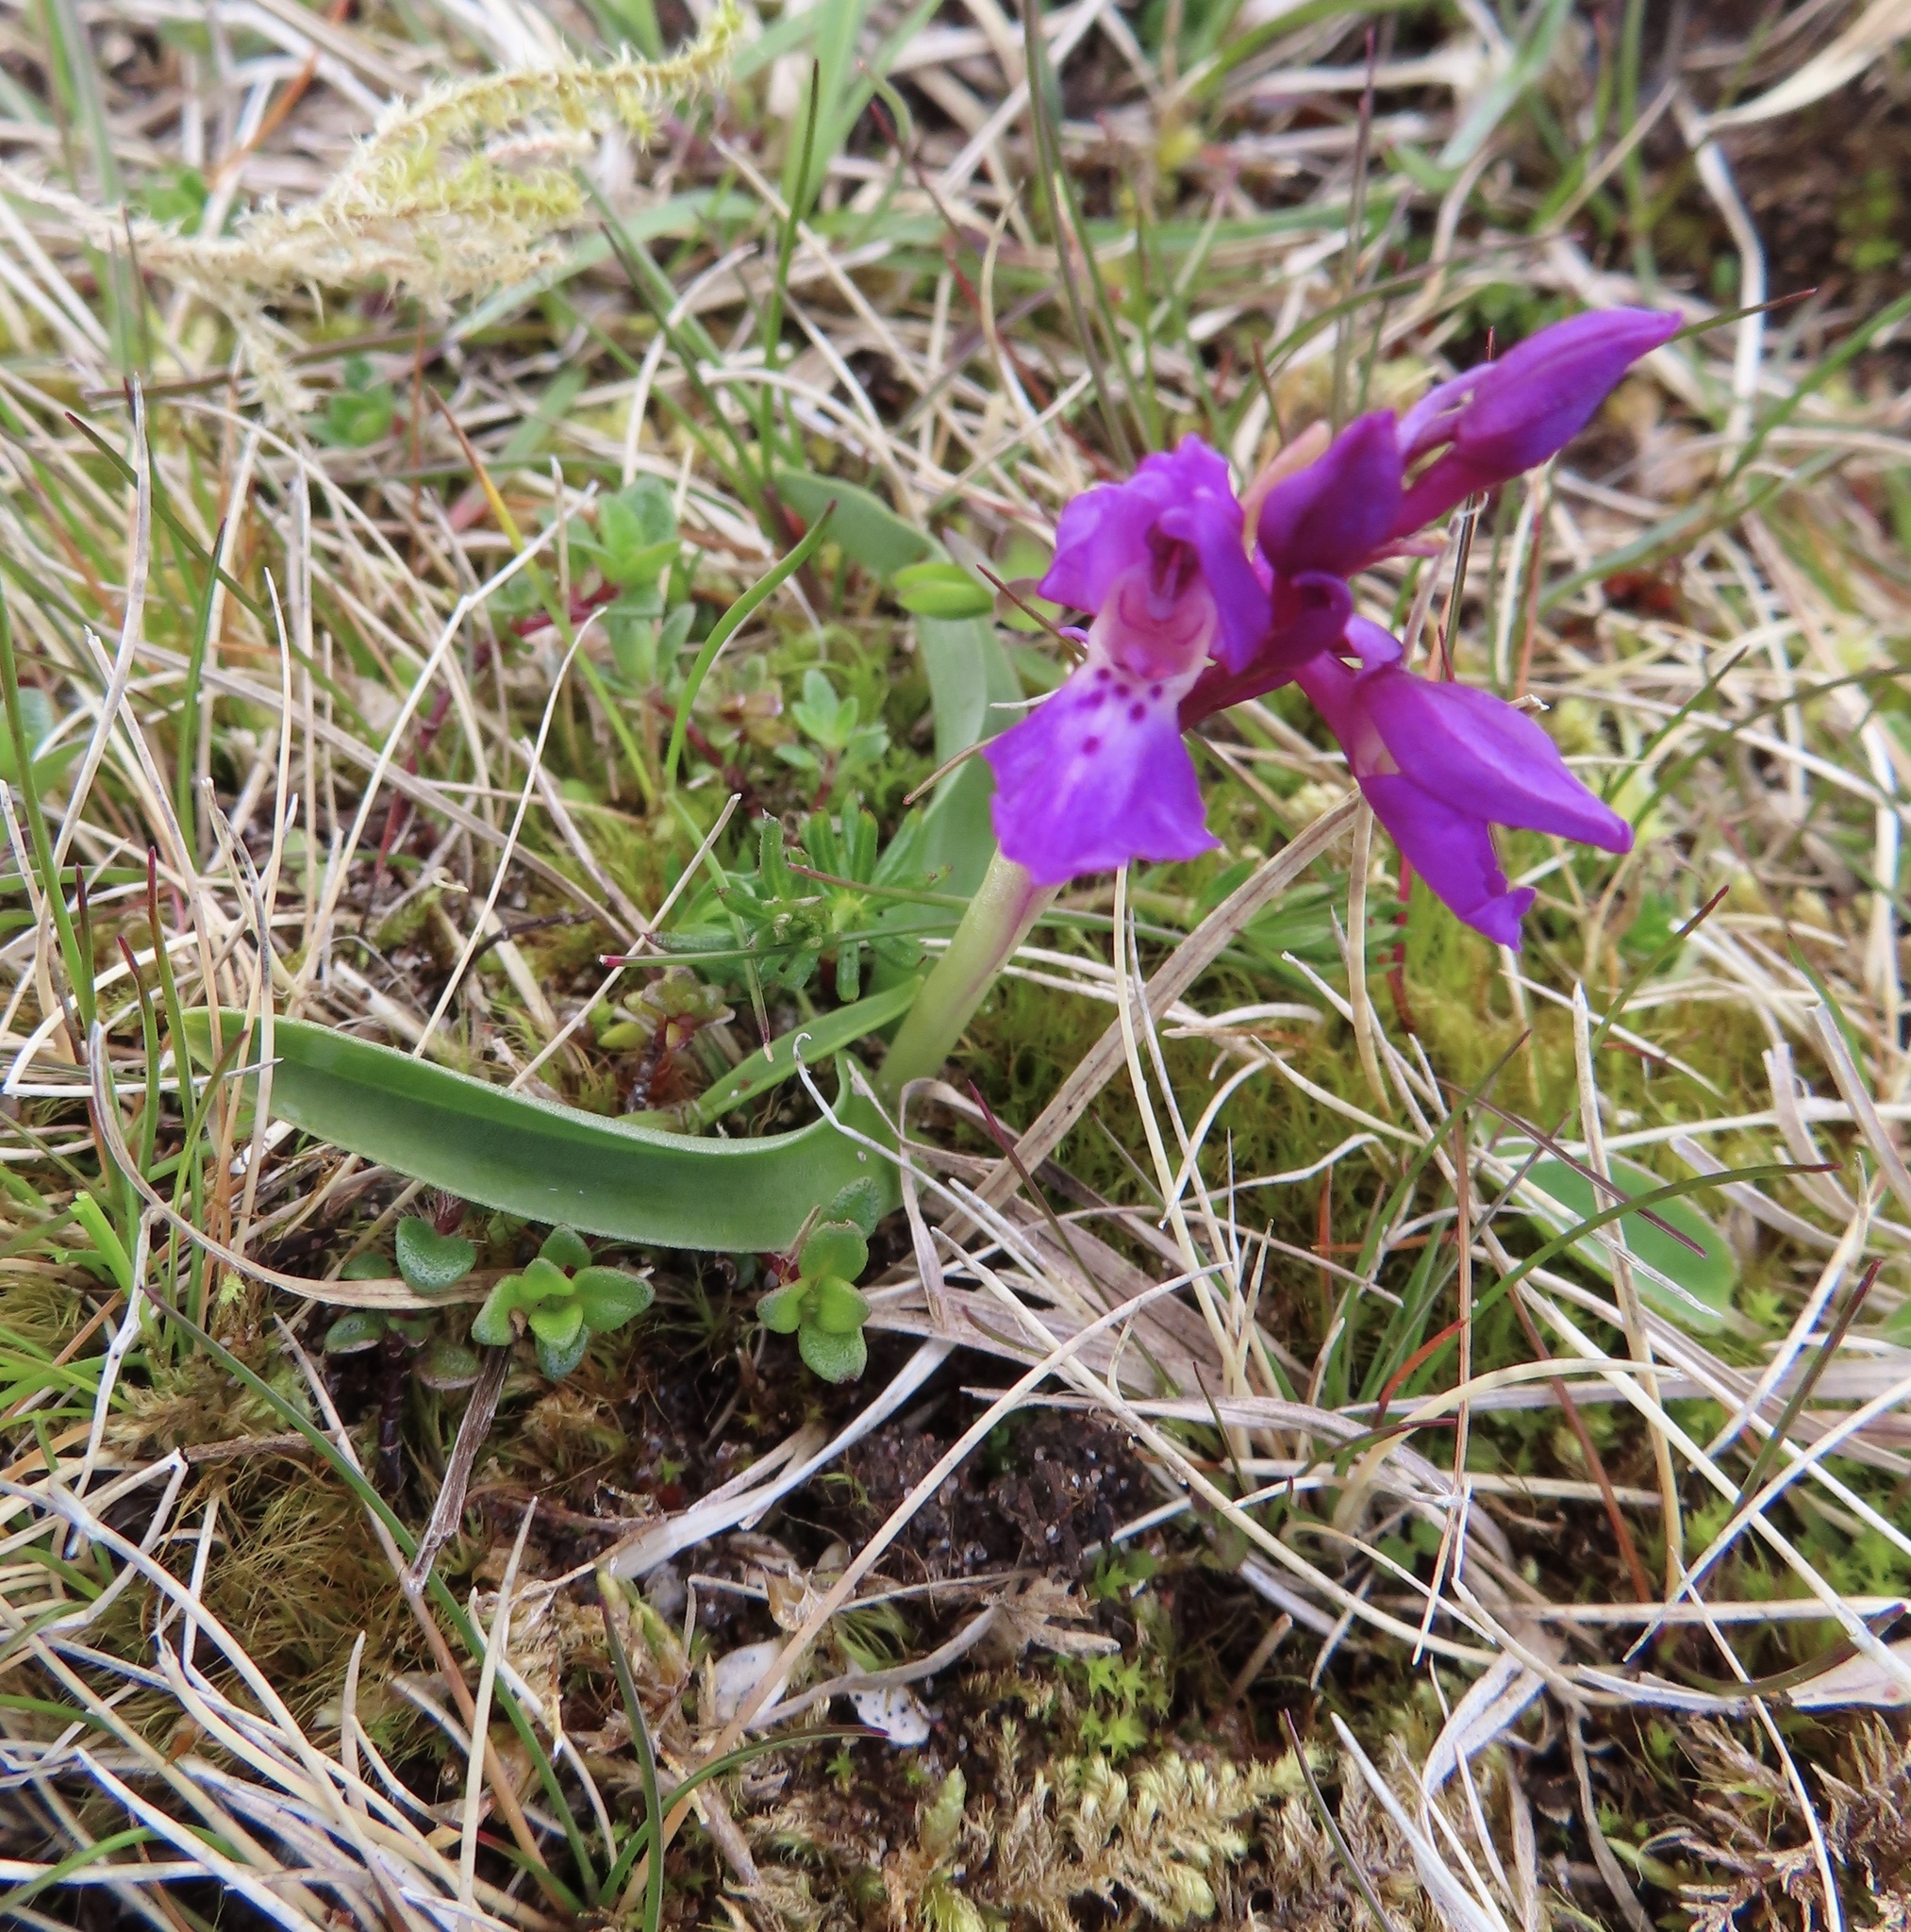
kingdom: Plantae
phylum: Tracheophyta
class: Liliopsida
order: Asparagales
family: Orchidaceae
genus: Orchis
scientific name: Orchis mascula
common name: Early-purple orchid
